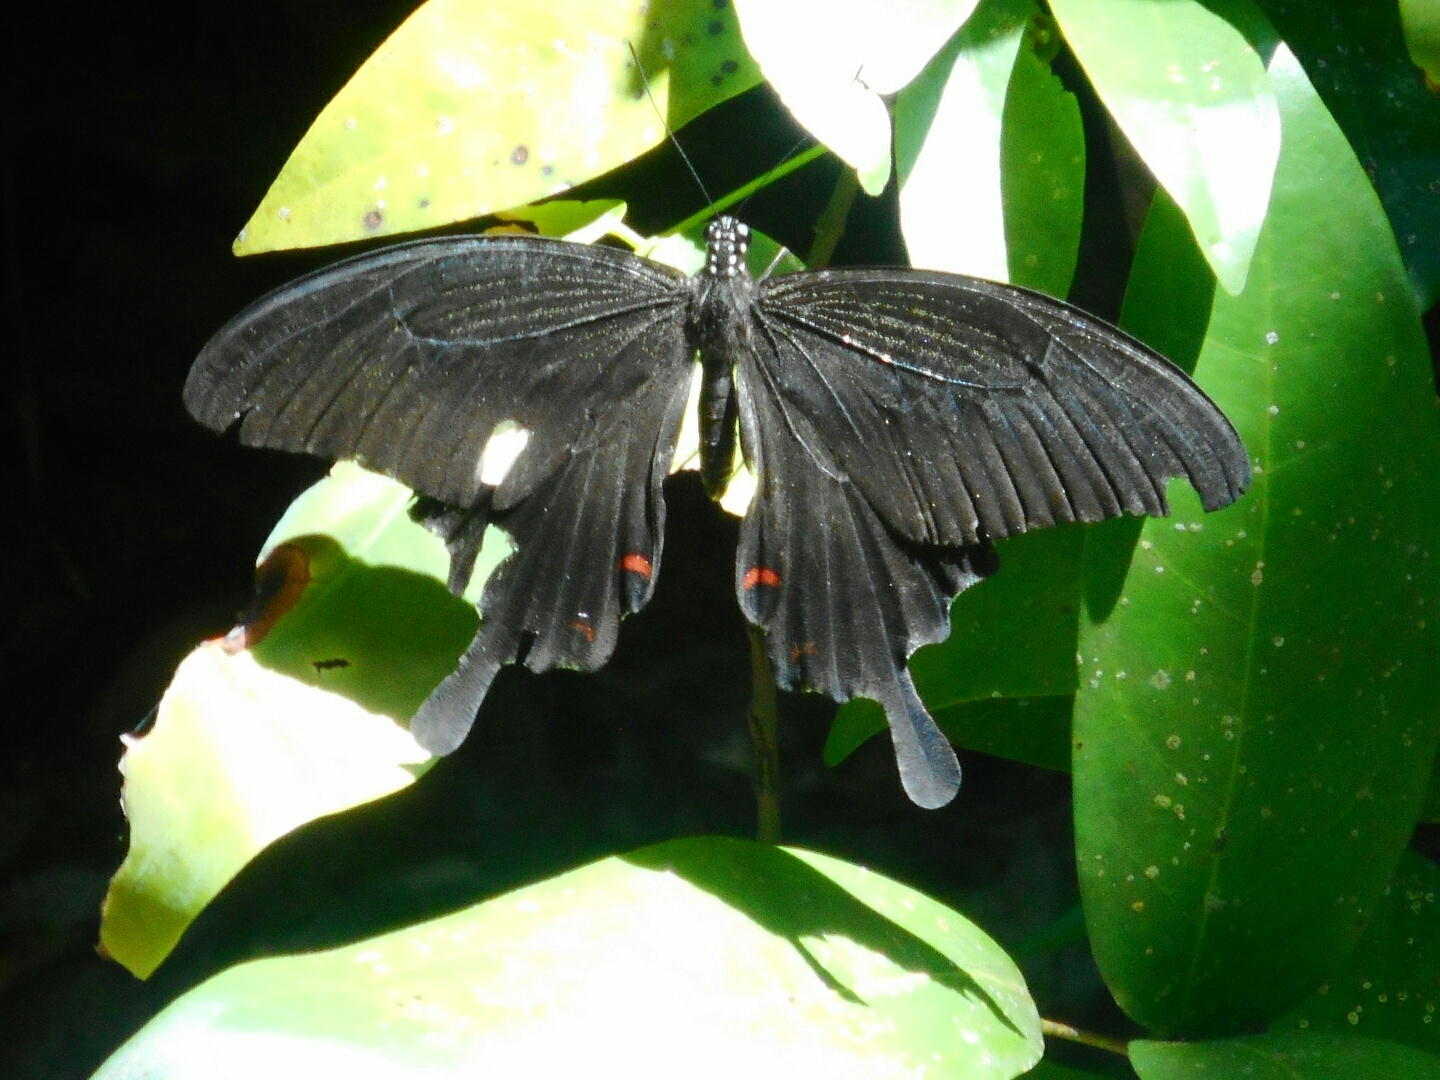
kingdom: Animalia
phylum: Arthropoda
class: Insecta
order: Lepidoptera
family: Papilionidae
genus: Papilio
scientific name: Papilio helenus
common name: Red helen
